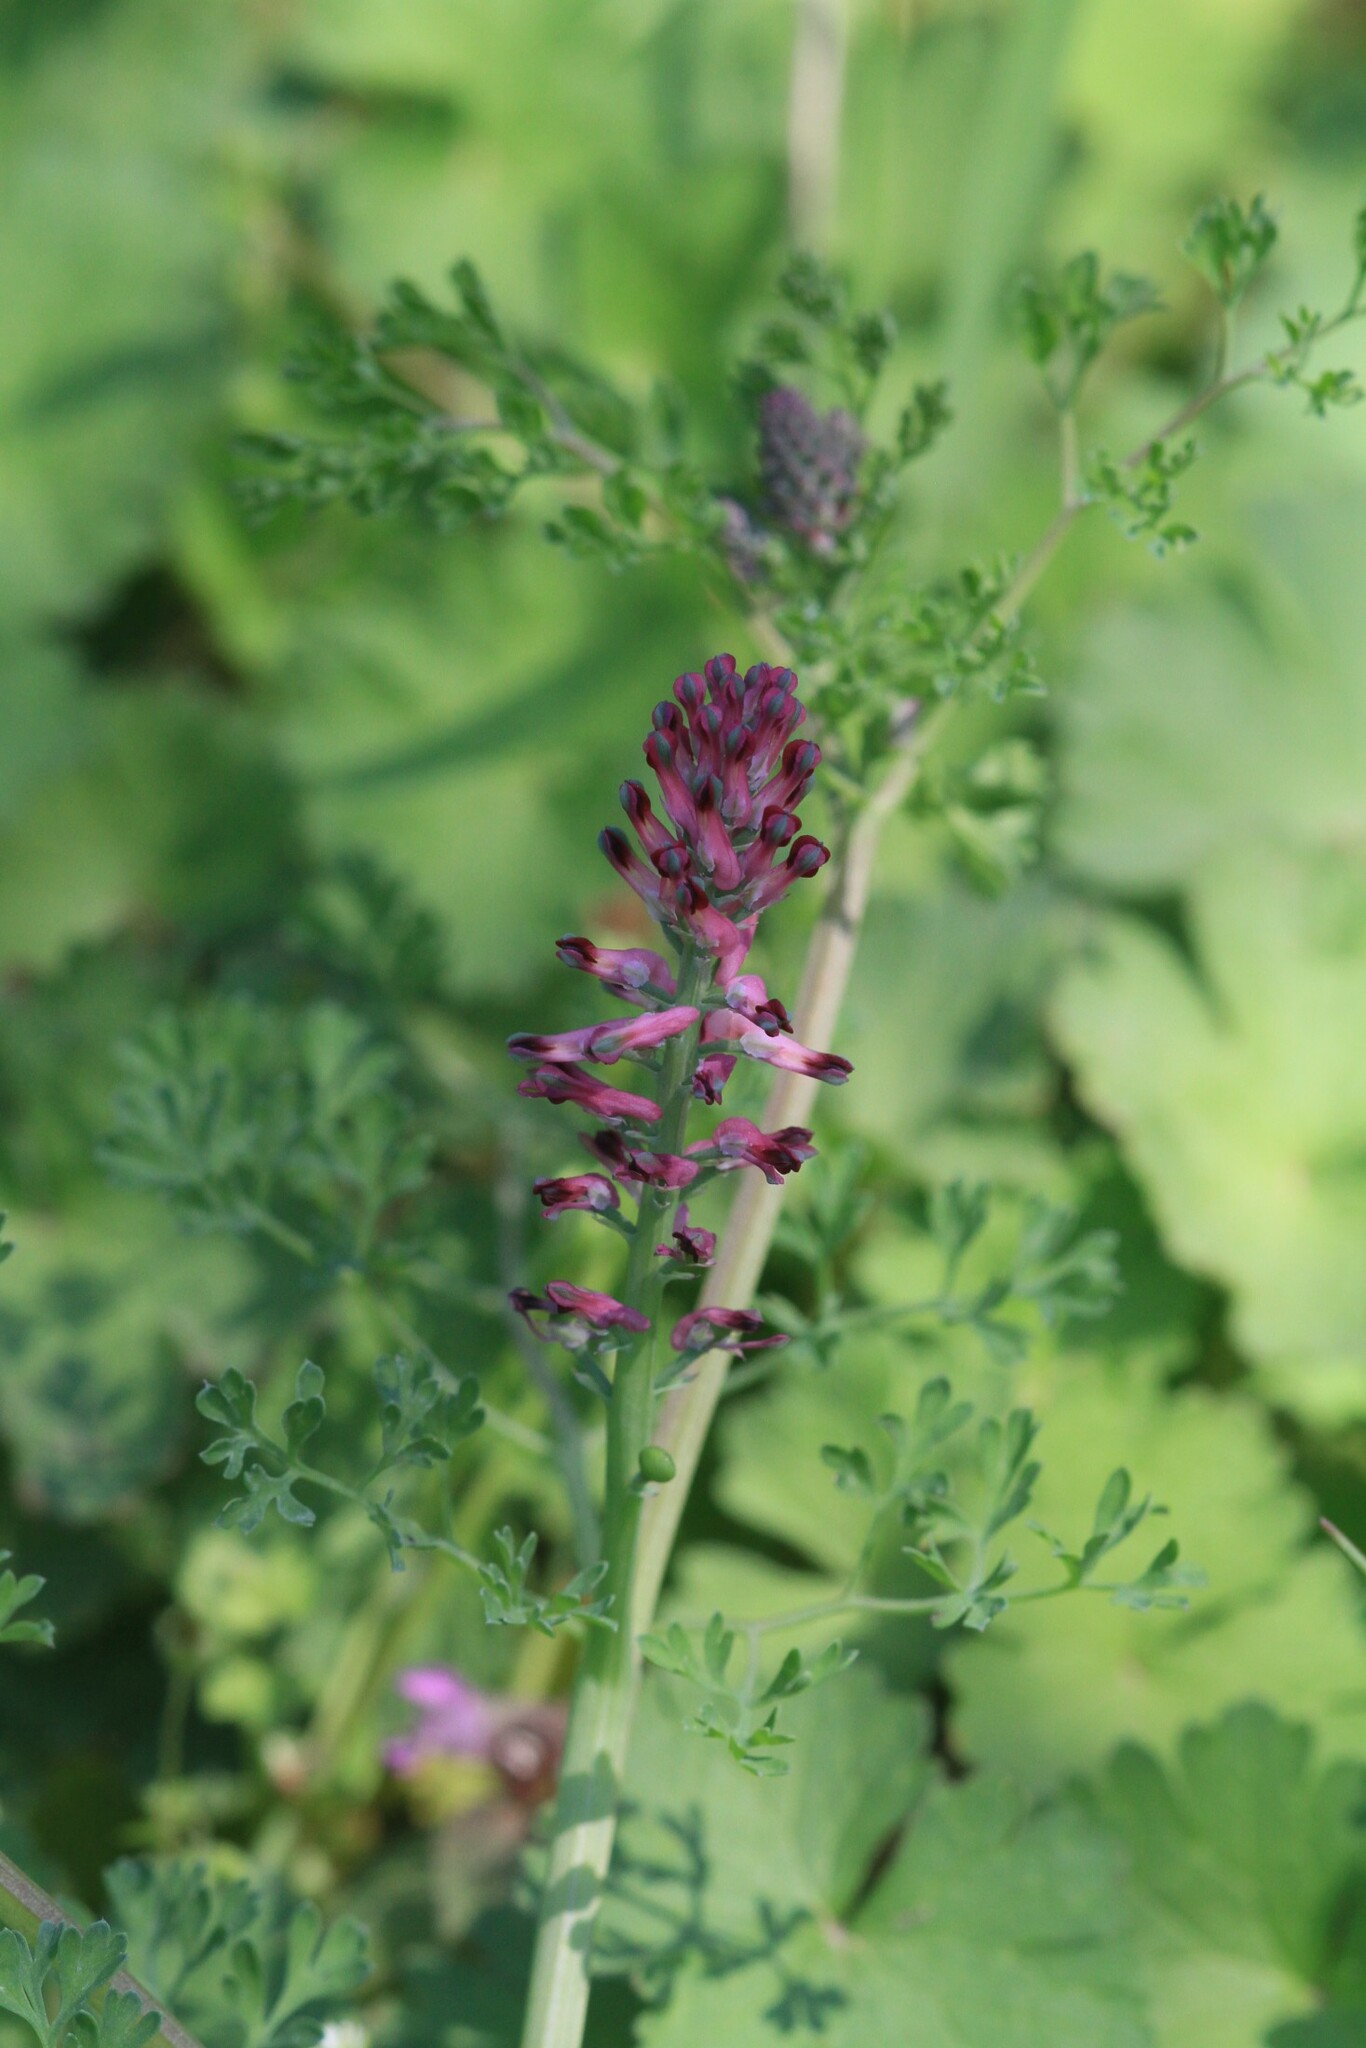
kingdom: Plantae
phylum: Tracheophyta
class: Magnoliopsida
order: Ranunculales
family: Papaveraceae
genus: Fumaria
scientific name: Fumaria officinalis
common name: Common fumitory
